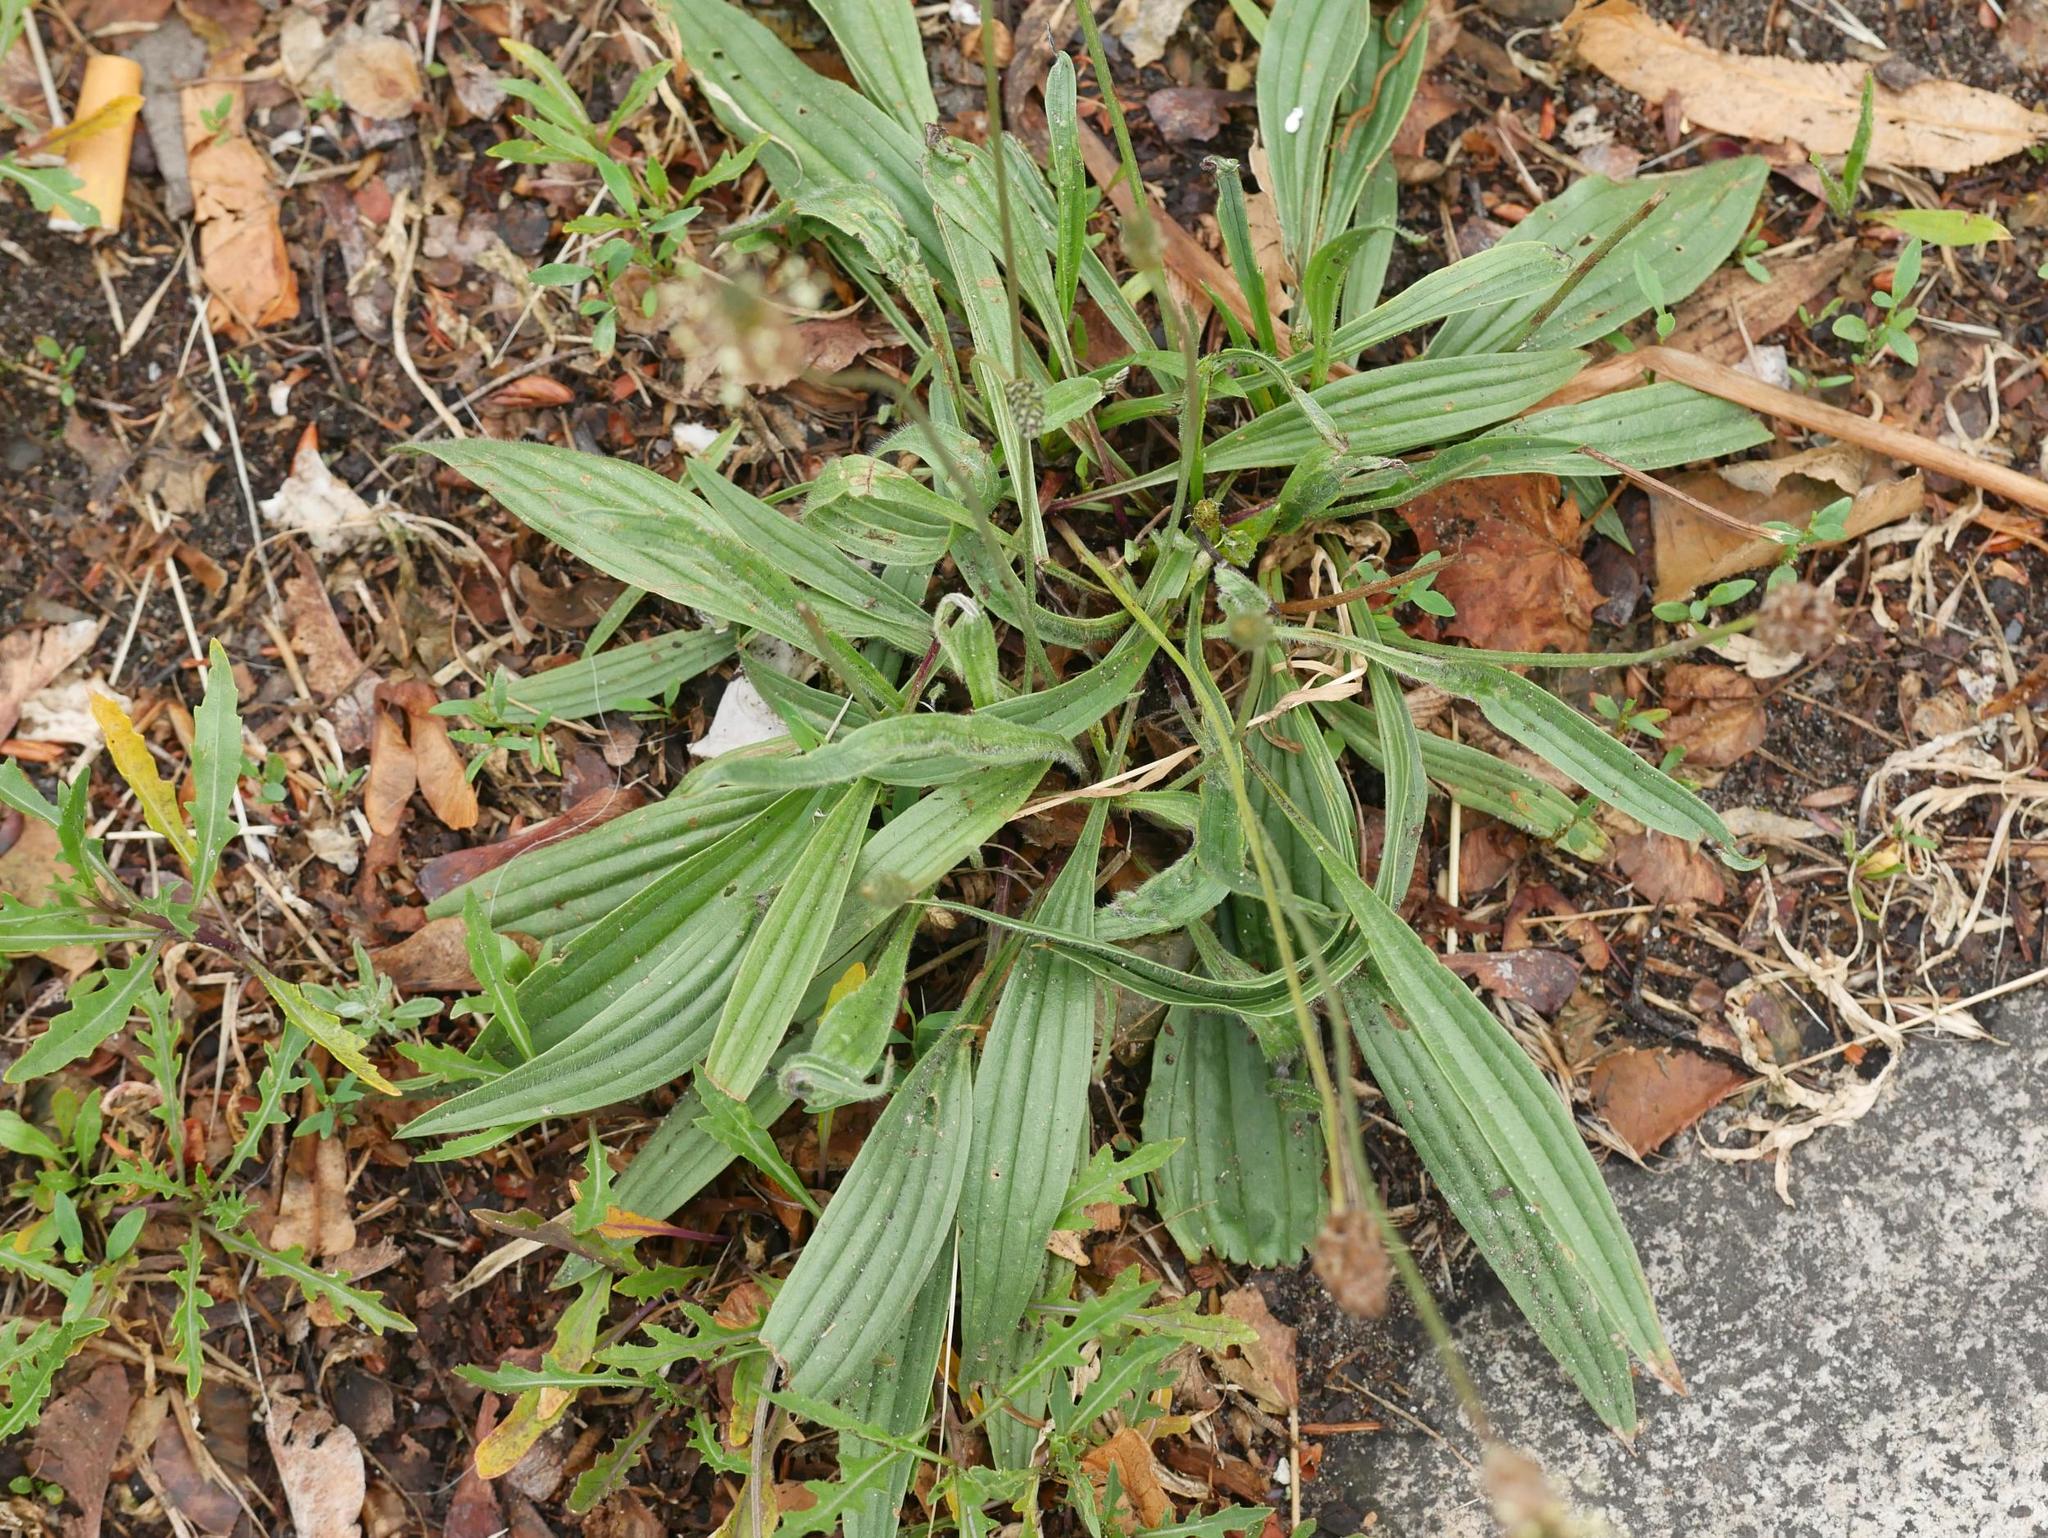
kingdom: Plantae
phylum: Tracheophyta
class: Magnoliopsida
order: Lamiales
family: Plantaginaceae
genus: Plantago
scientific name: Plantago lanceolata
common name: Ribwort plantain
